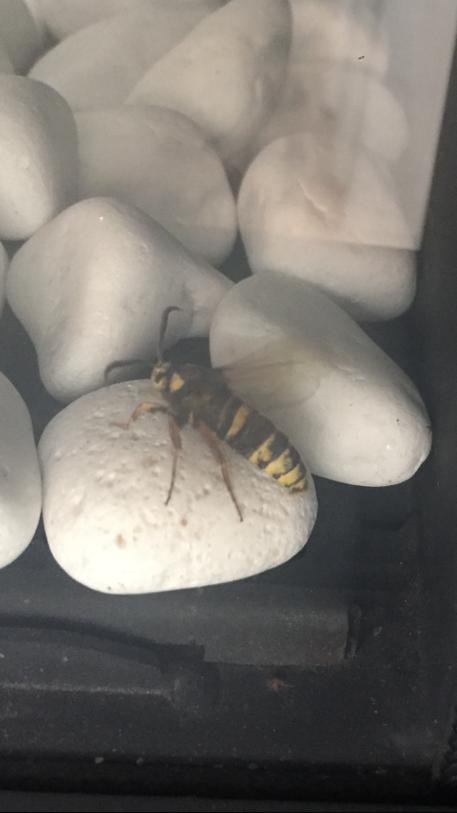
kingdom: Animalia
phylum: Arthropoda
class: Insecta
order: Lepidoptera
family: Sesiidae
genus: Sesia
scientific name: Sesia apiformis
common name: Hornet moth
